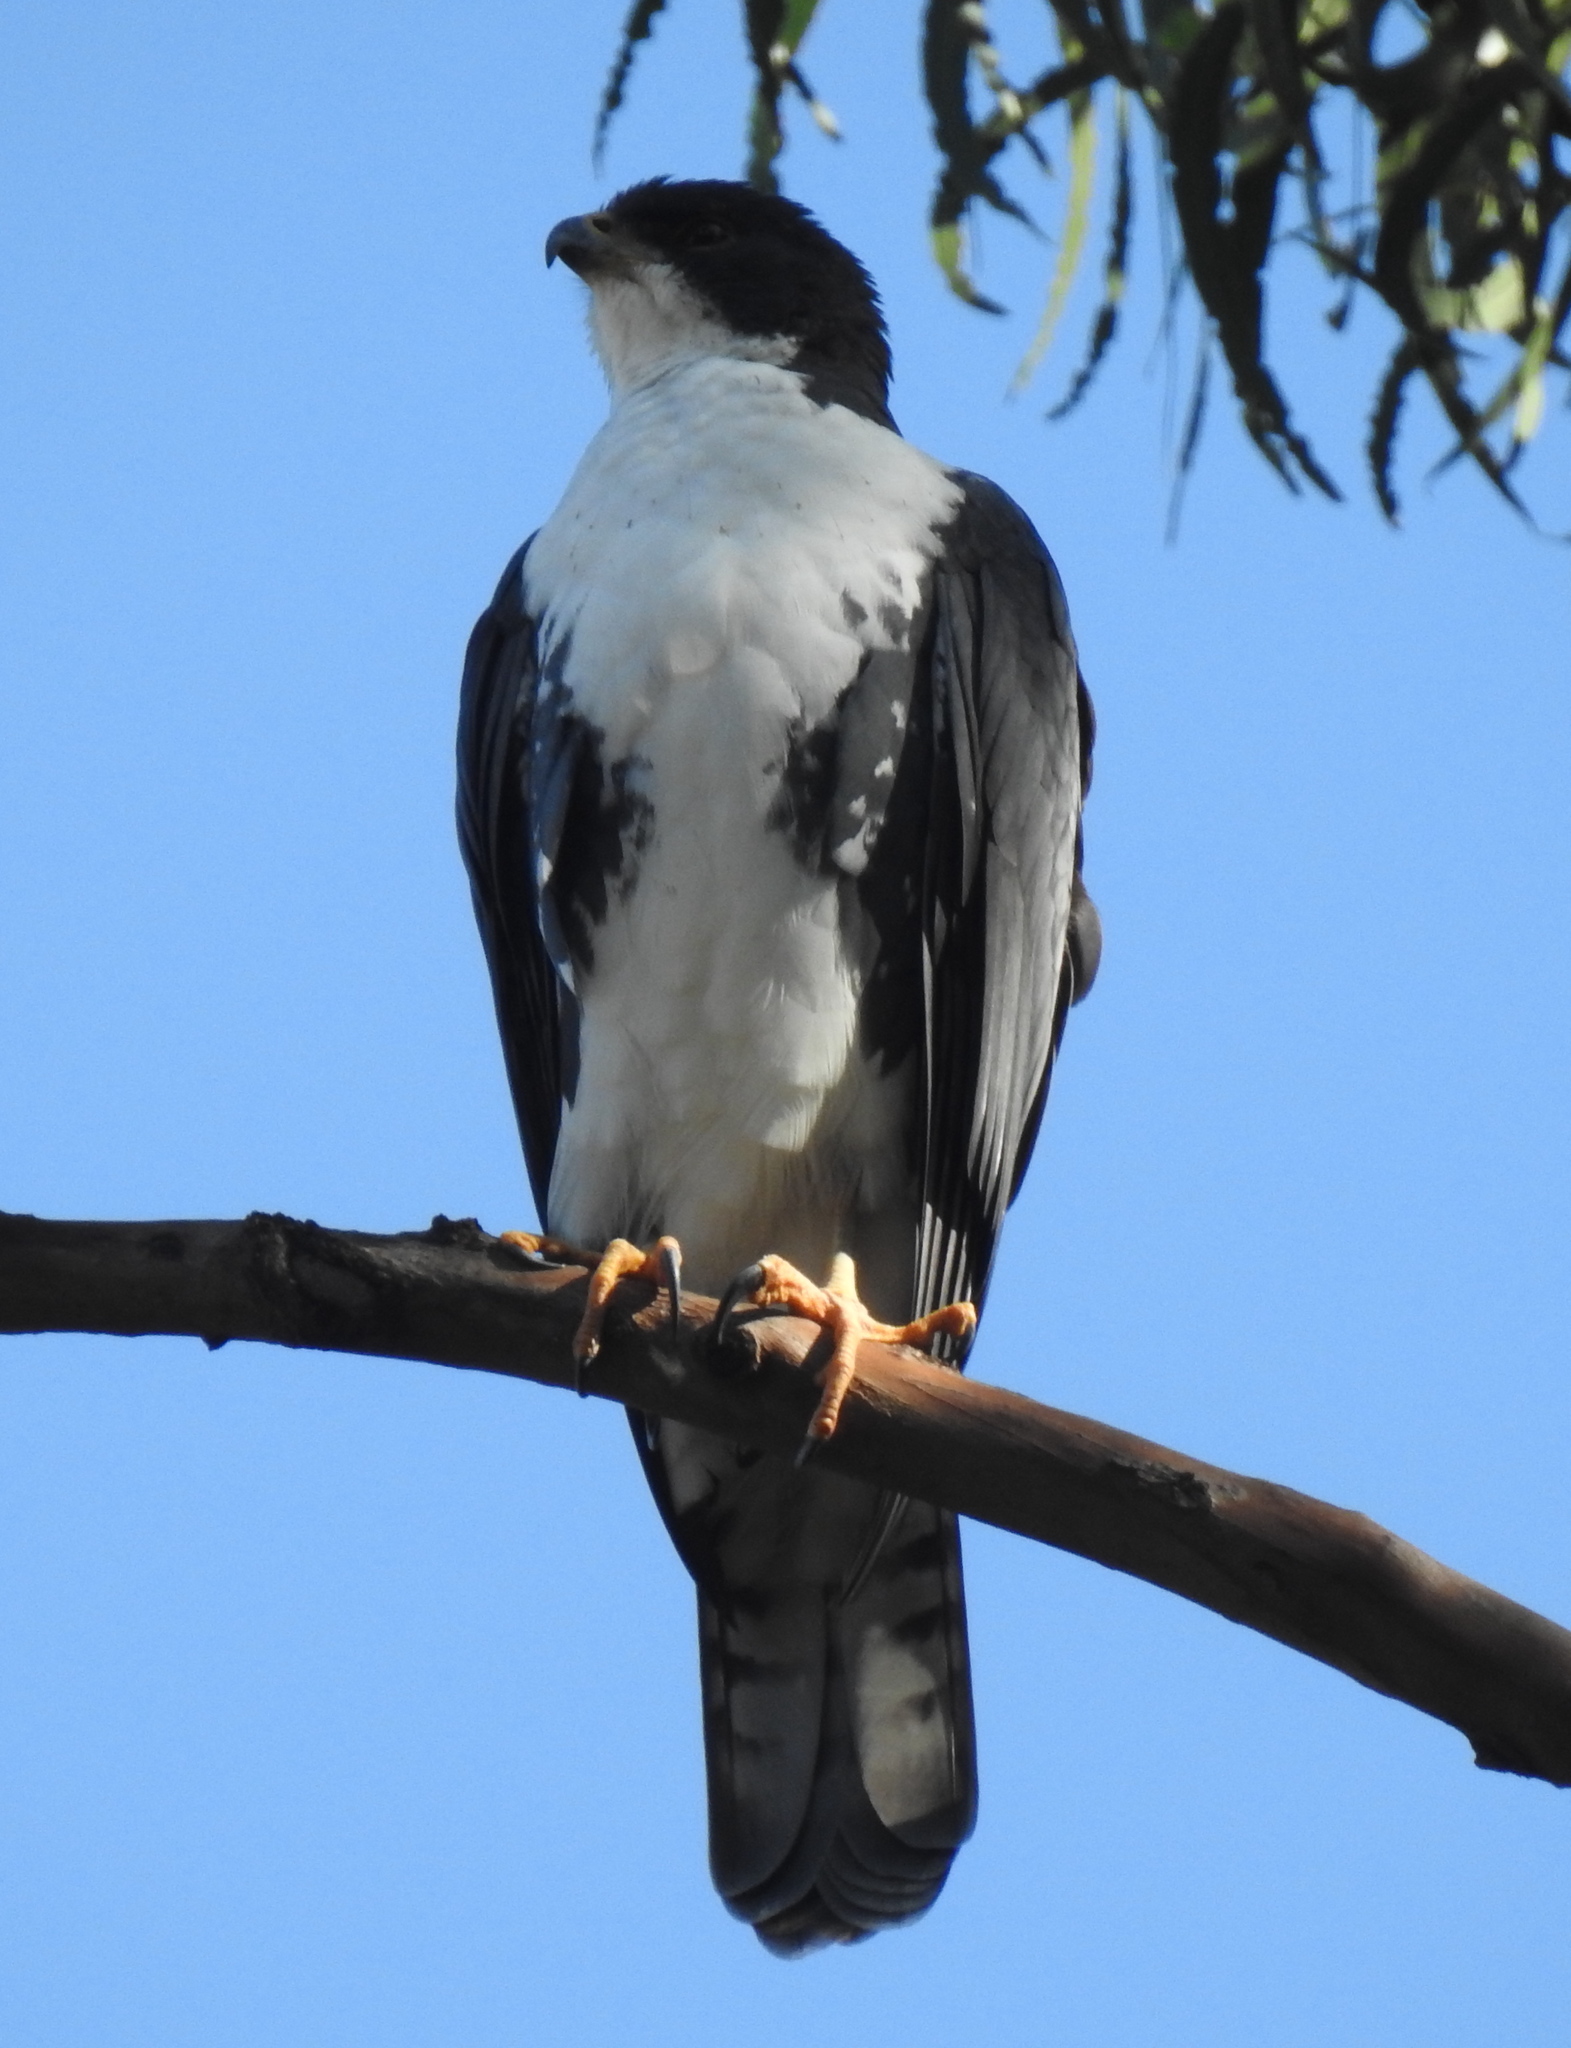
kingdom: Animalia
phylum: Chordata
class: Aves
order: Accipitriformes
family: Accipitridae
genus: Accipiter
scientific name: Accipiter melanoleucus
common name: Black sparrowhawk
